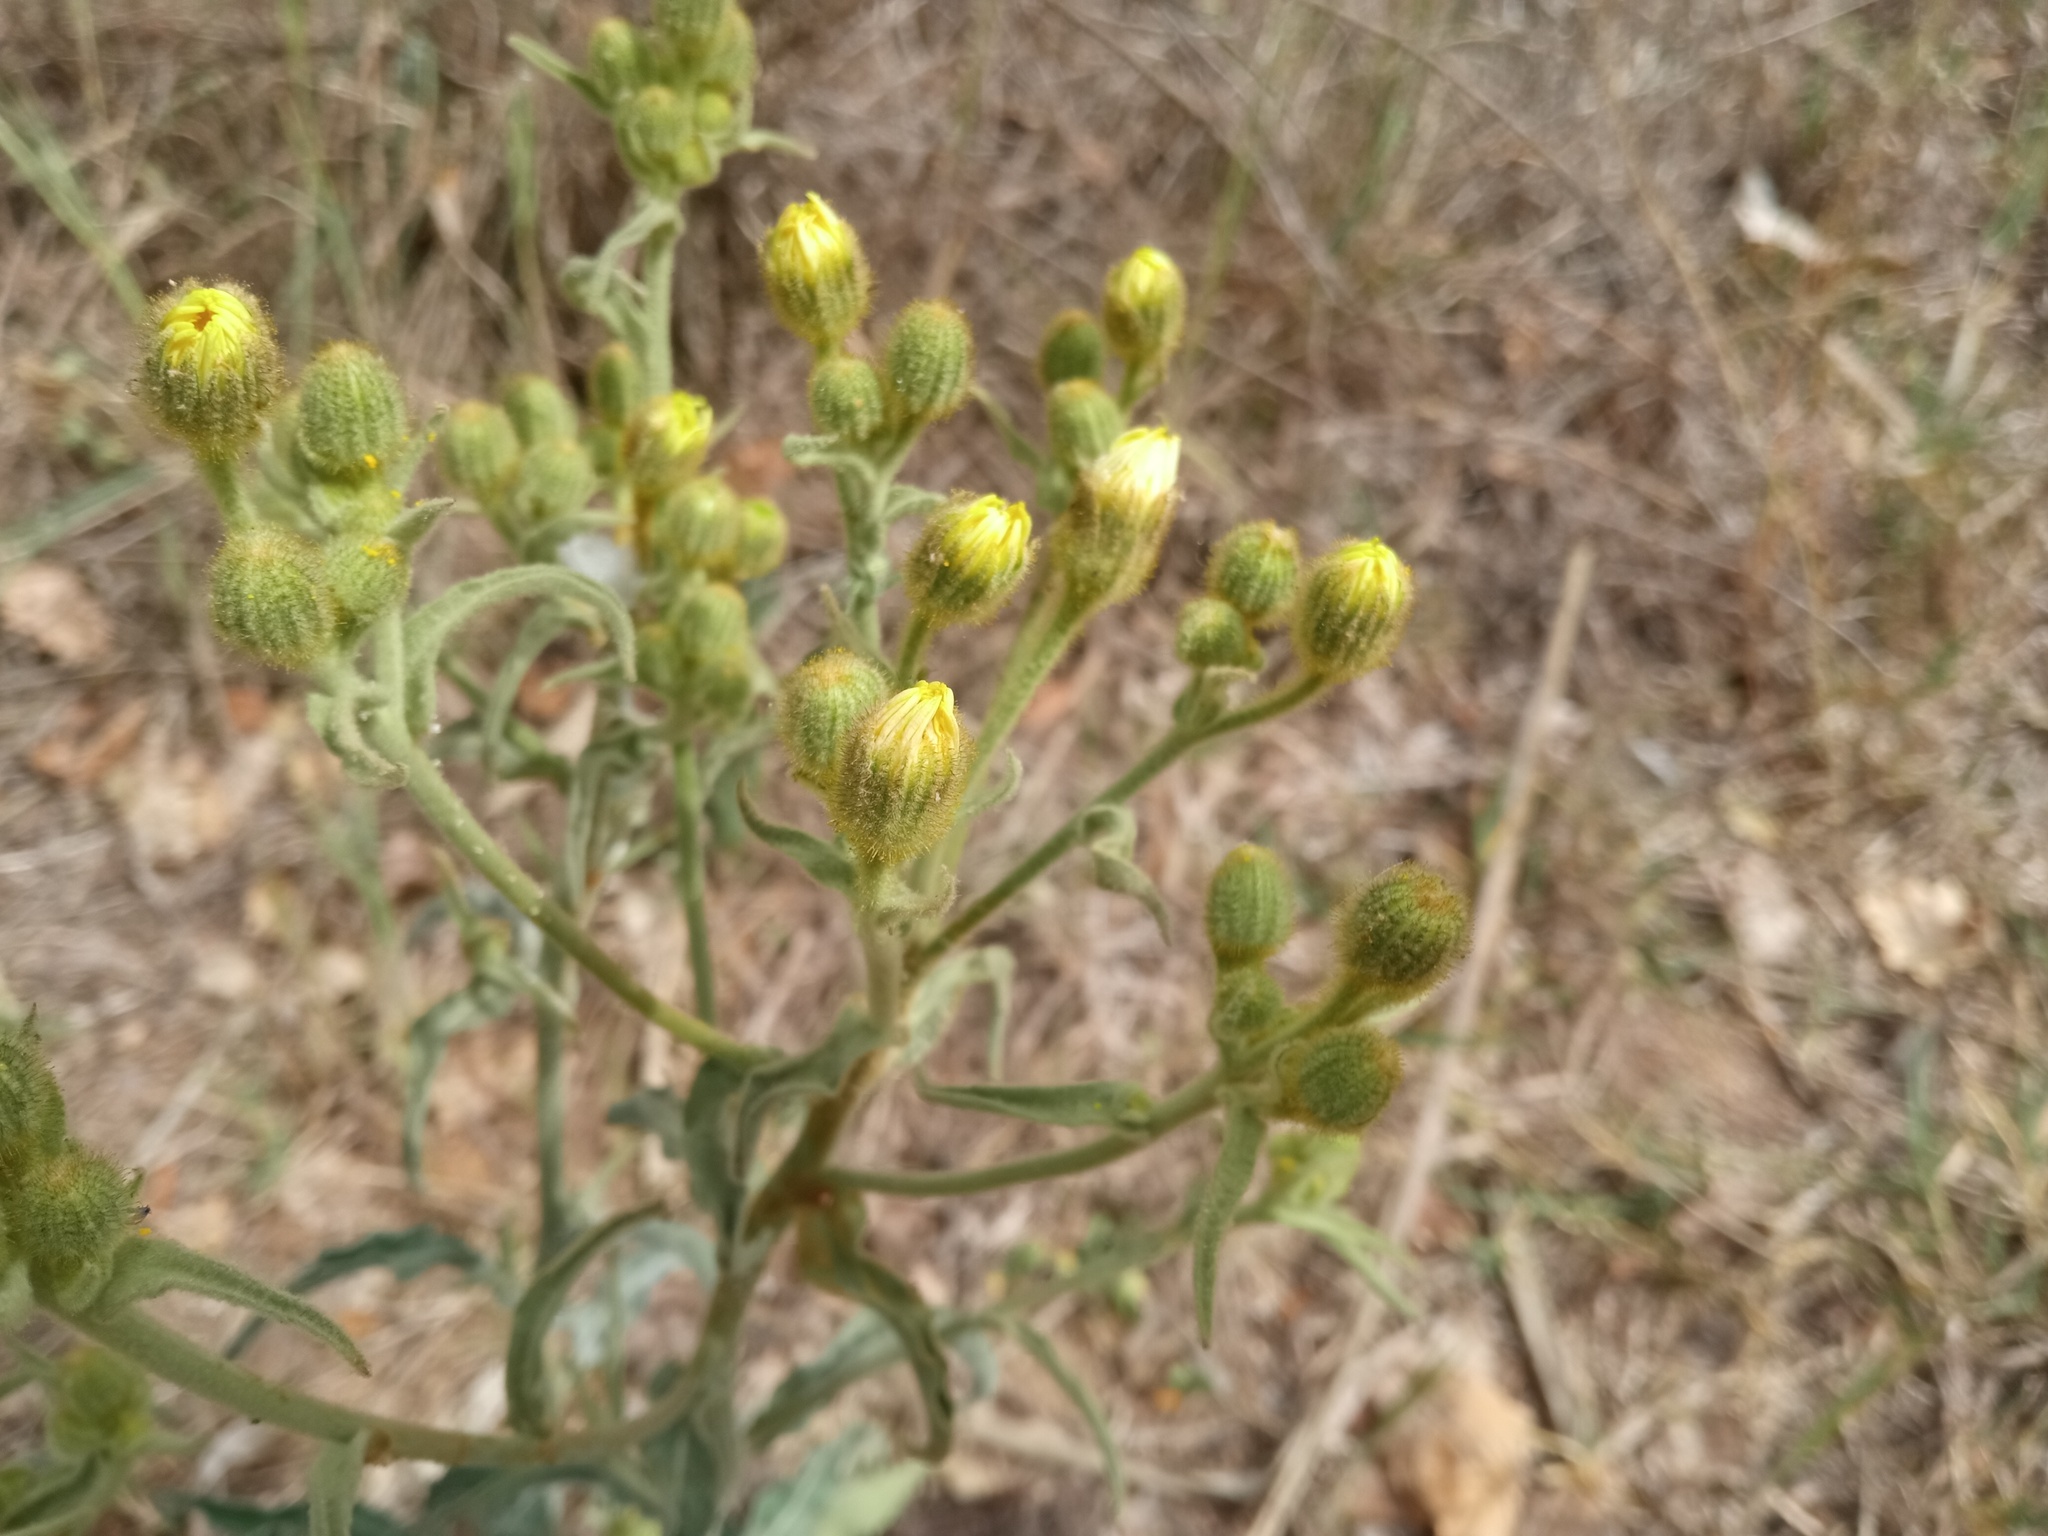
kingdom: Plantae
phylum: Tracheophyta
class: Magnoliopsida
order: Asterales
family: Asteraceae
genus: Andryala
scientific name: Andryala integrifolia
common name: Common andryala
